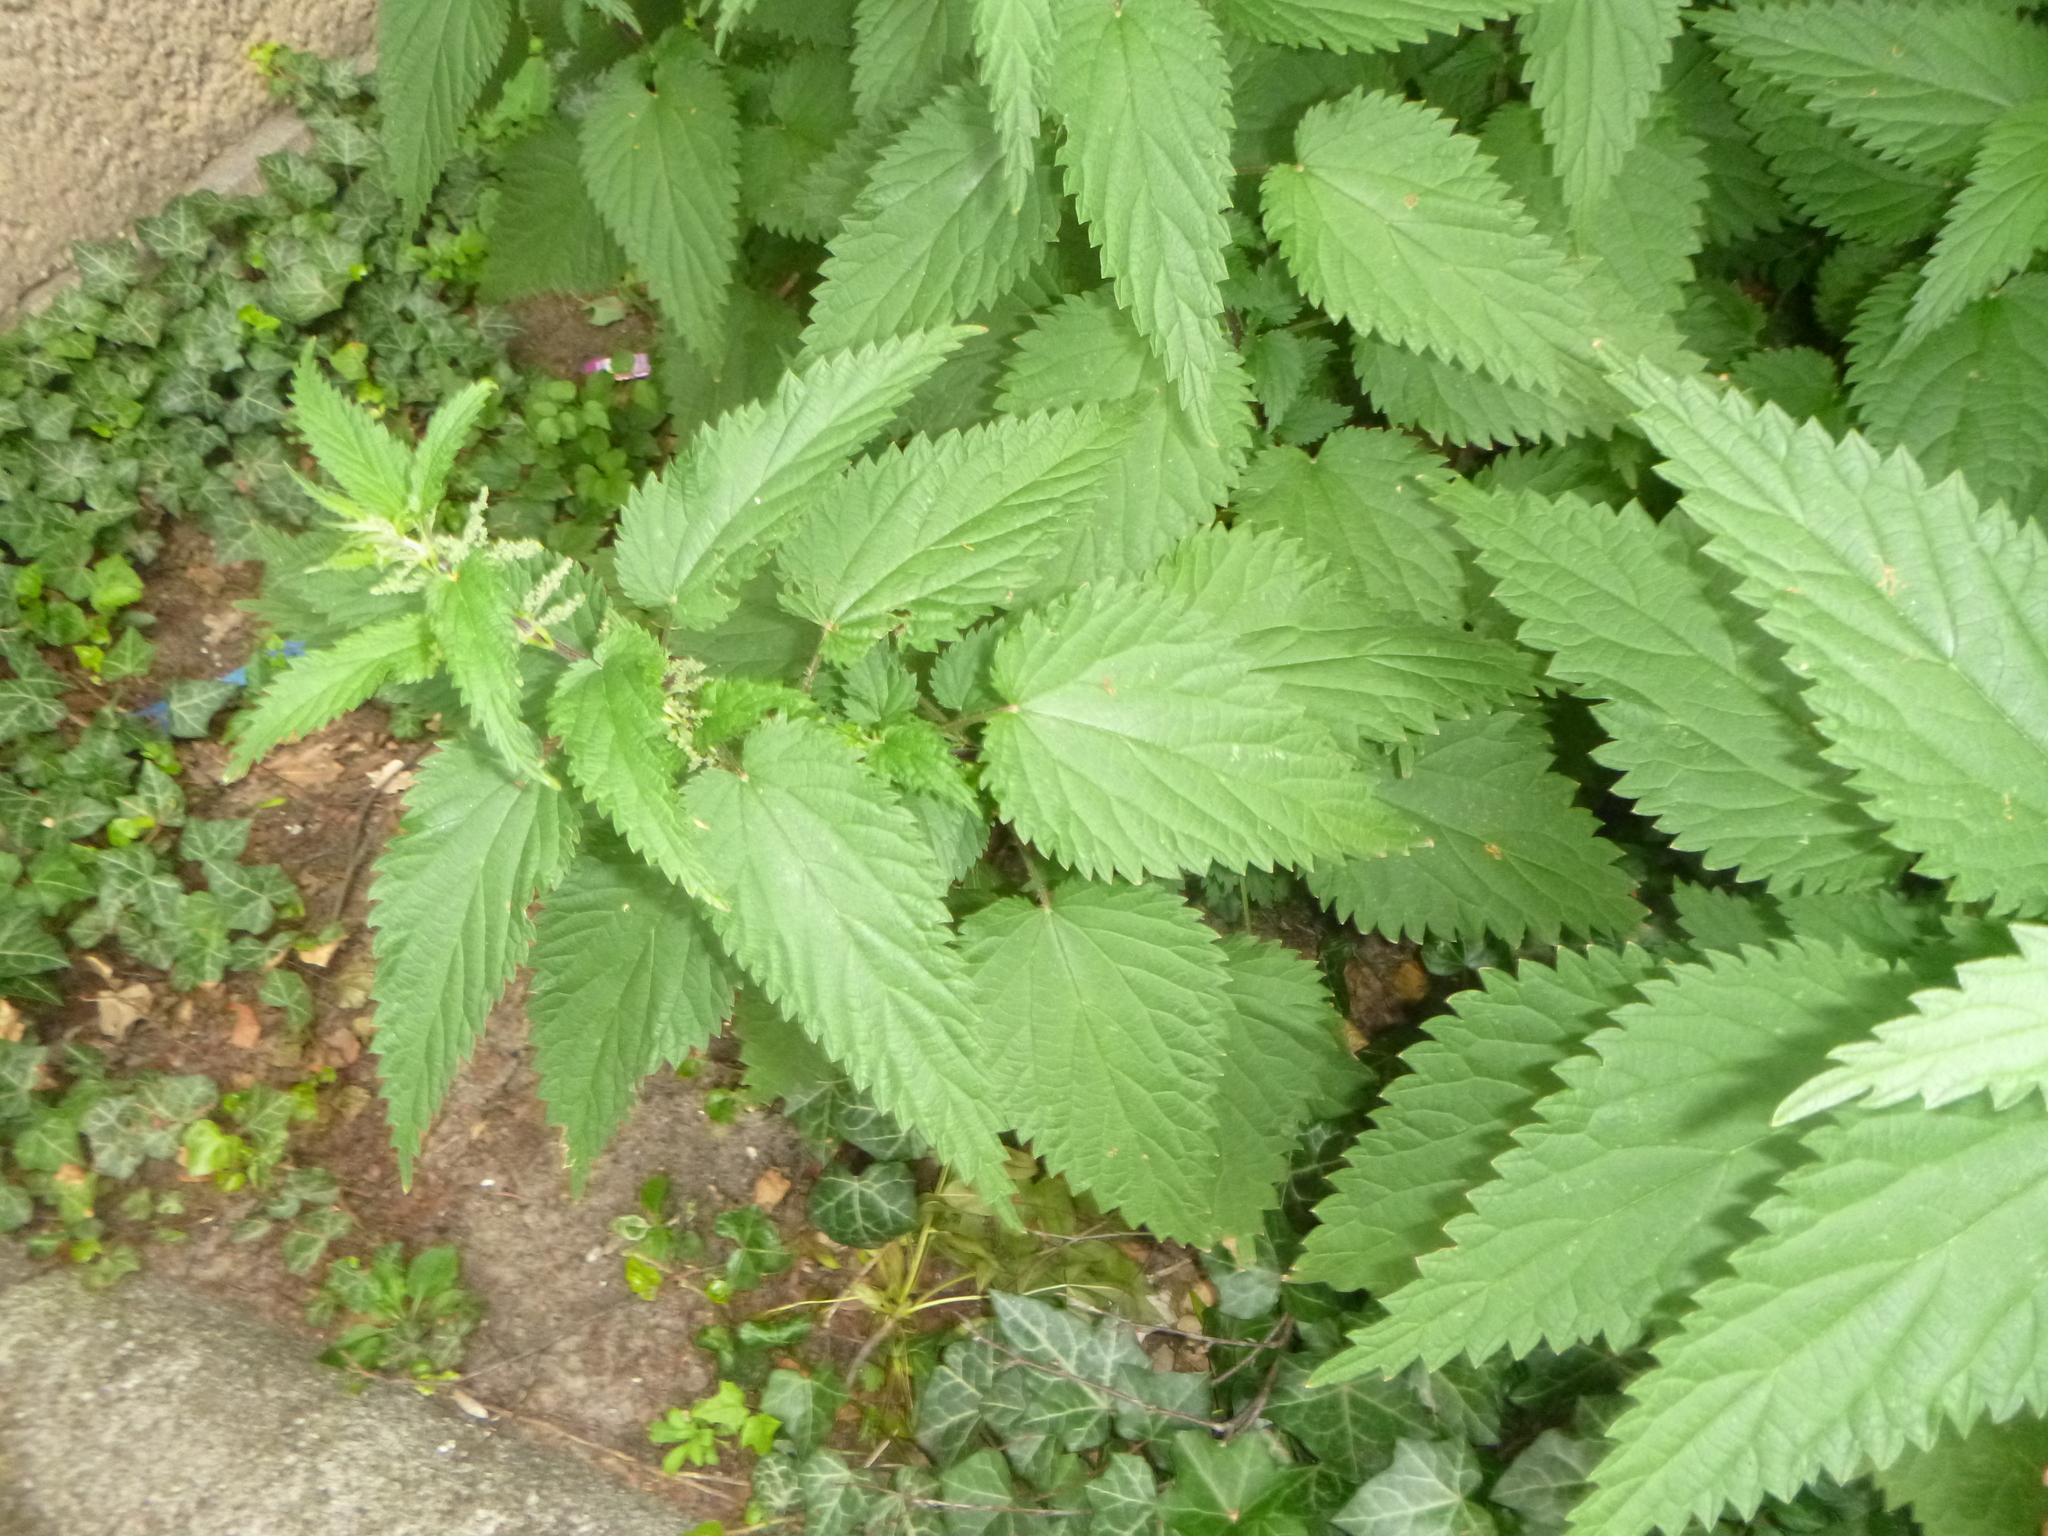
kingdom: Plantae
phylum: Tracheophyta
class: Magnoliopsida
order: Rosales
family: Urticaceae
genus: Urtica
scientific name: Urtica dioica
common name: Common nettle
